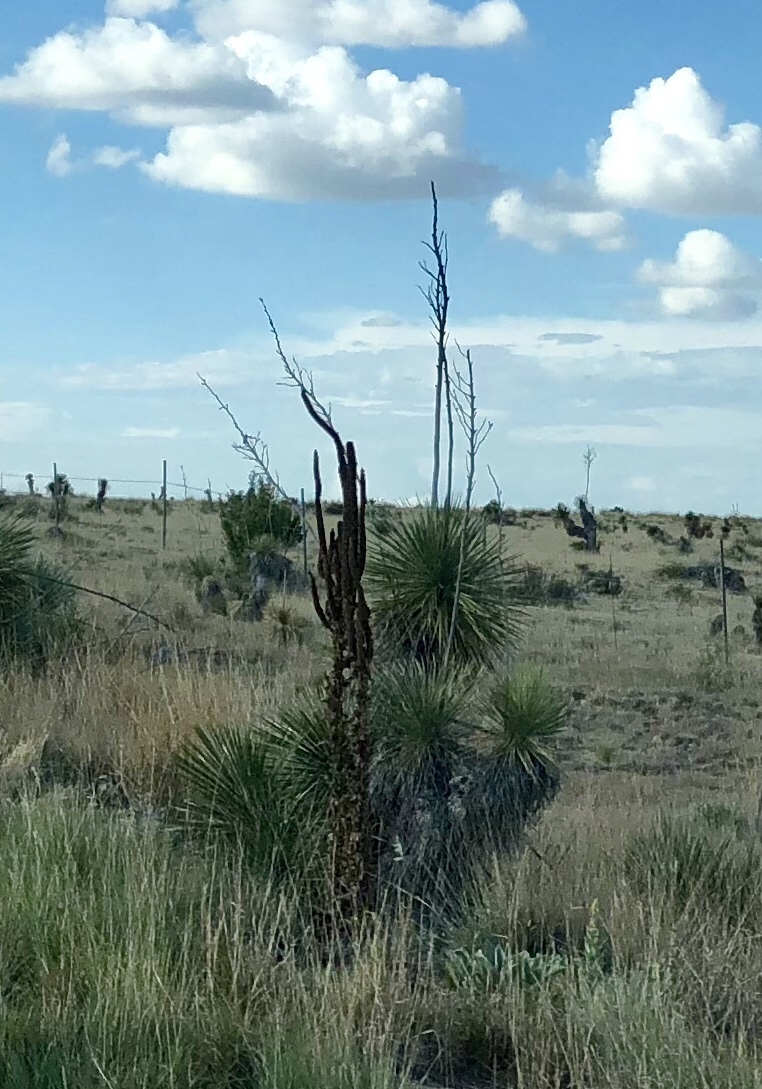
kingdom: Plantae
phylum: Tracheophyta
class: Liliopsida
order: Asparagales
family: Asparagaceae
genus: Yucca
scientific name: Yucca elata
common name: Palmella
